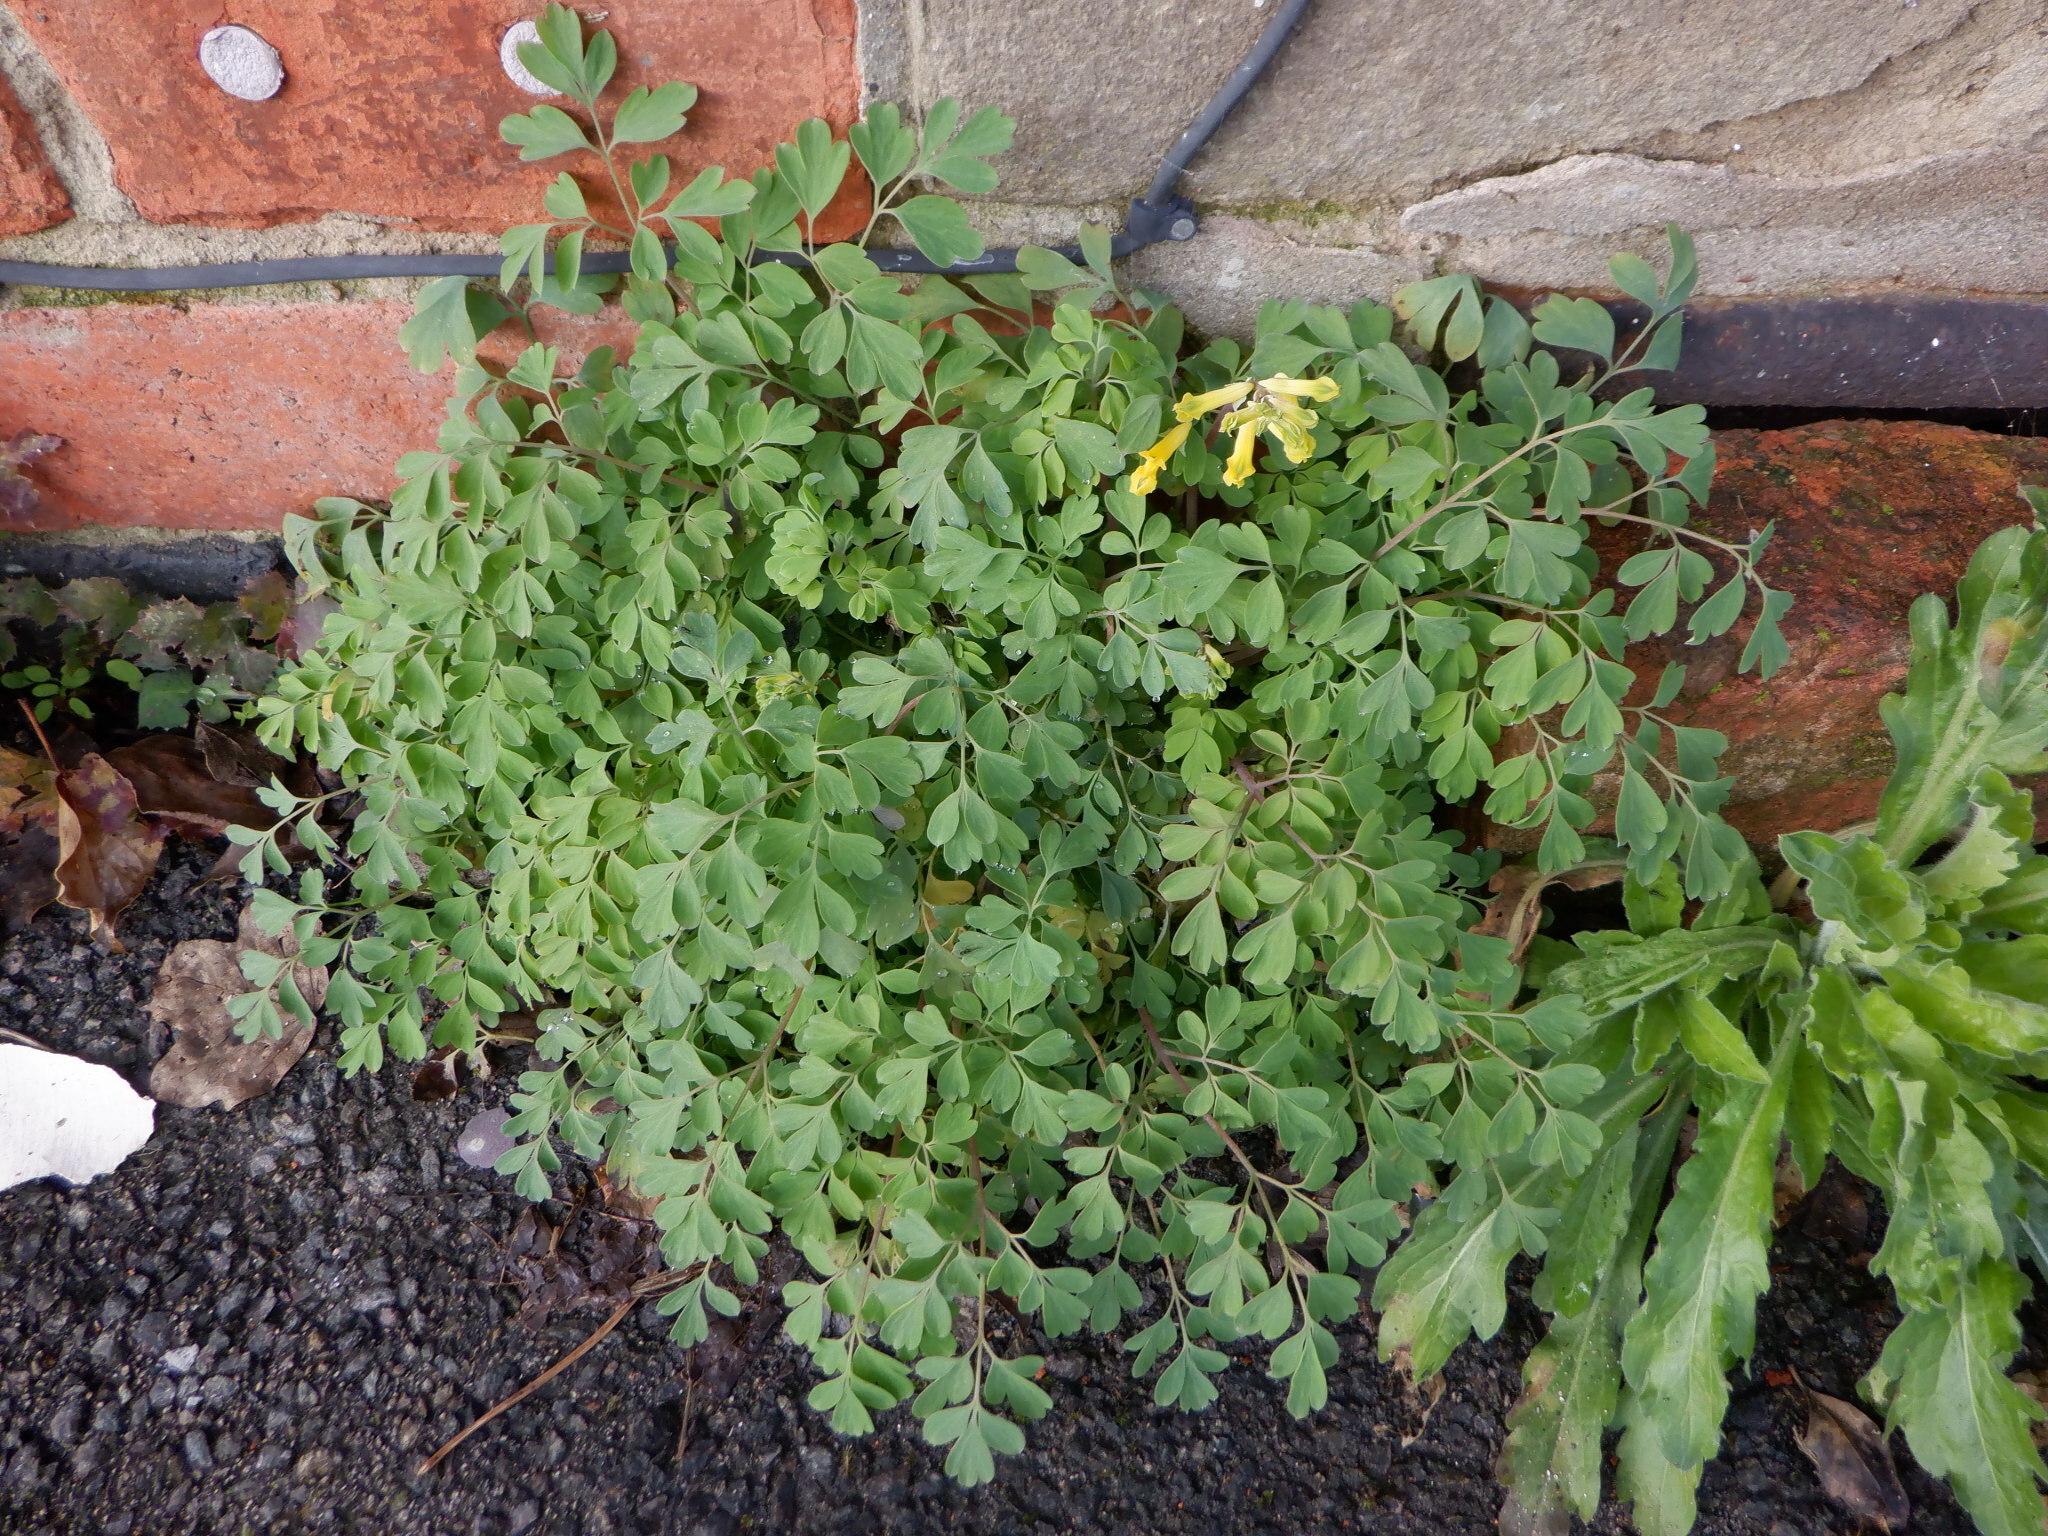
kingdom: Plantae
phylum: Tracheophyta
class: Magnoliopsida
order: Ranunculales
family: Papaveraceae
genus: Pseudofumaria
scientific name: Pseudofumaria lutea
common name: Yellow corydalis
